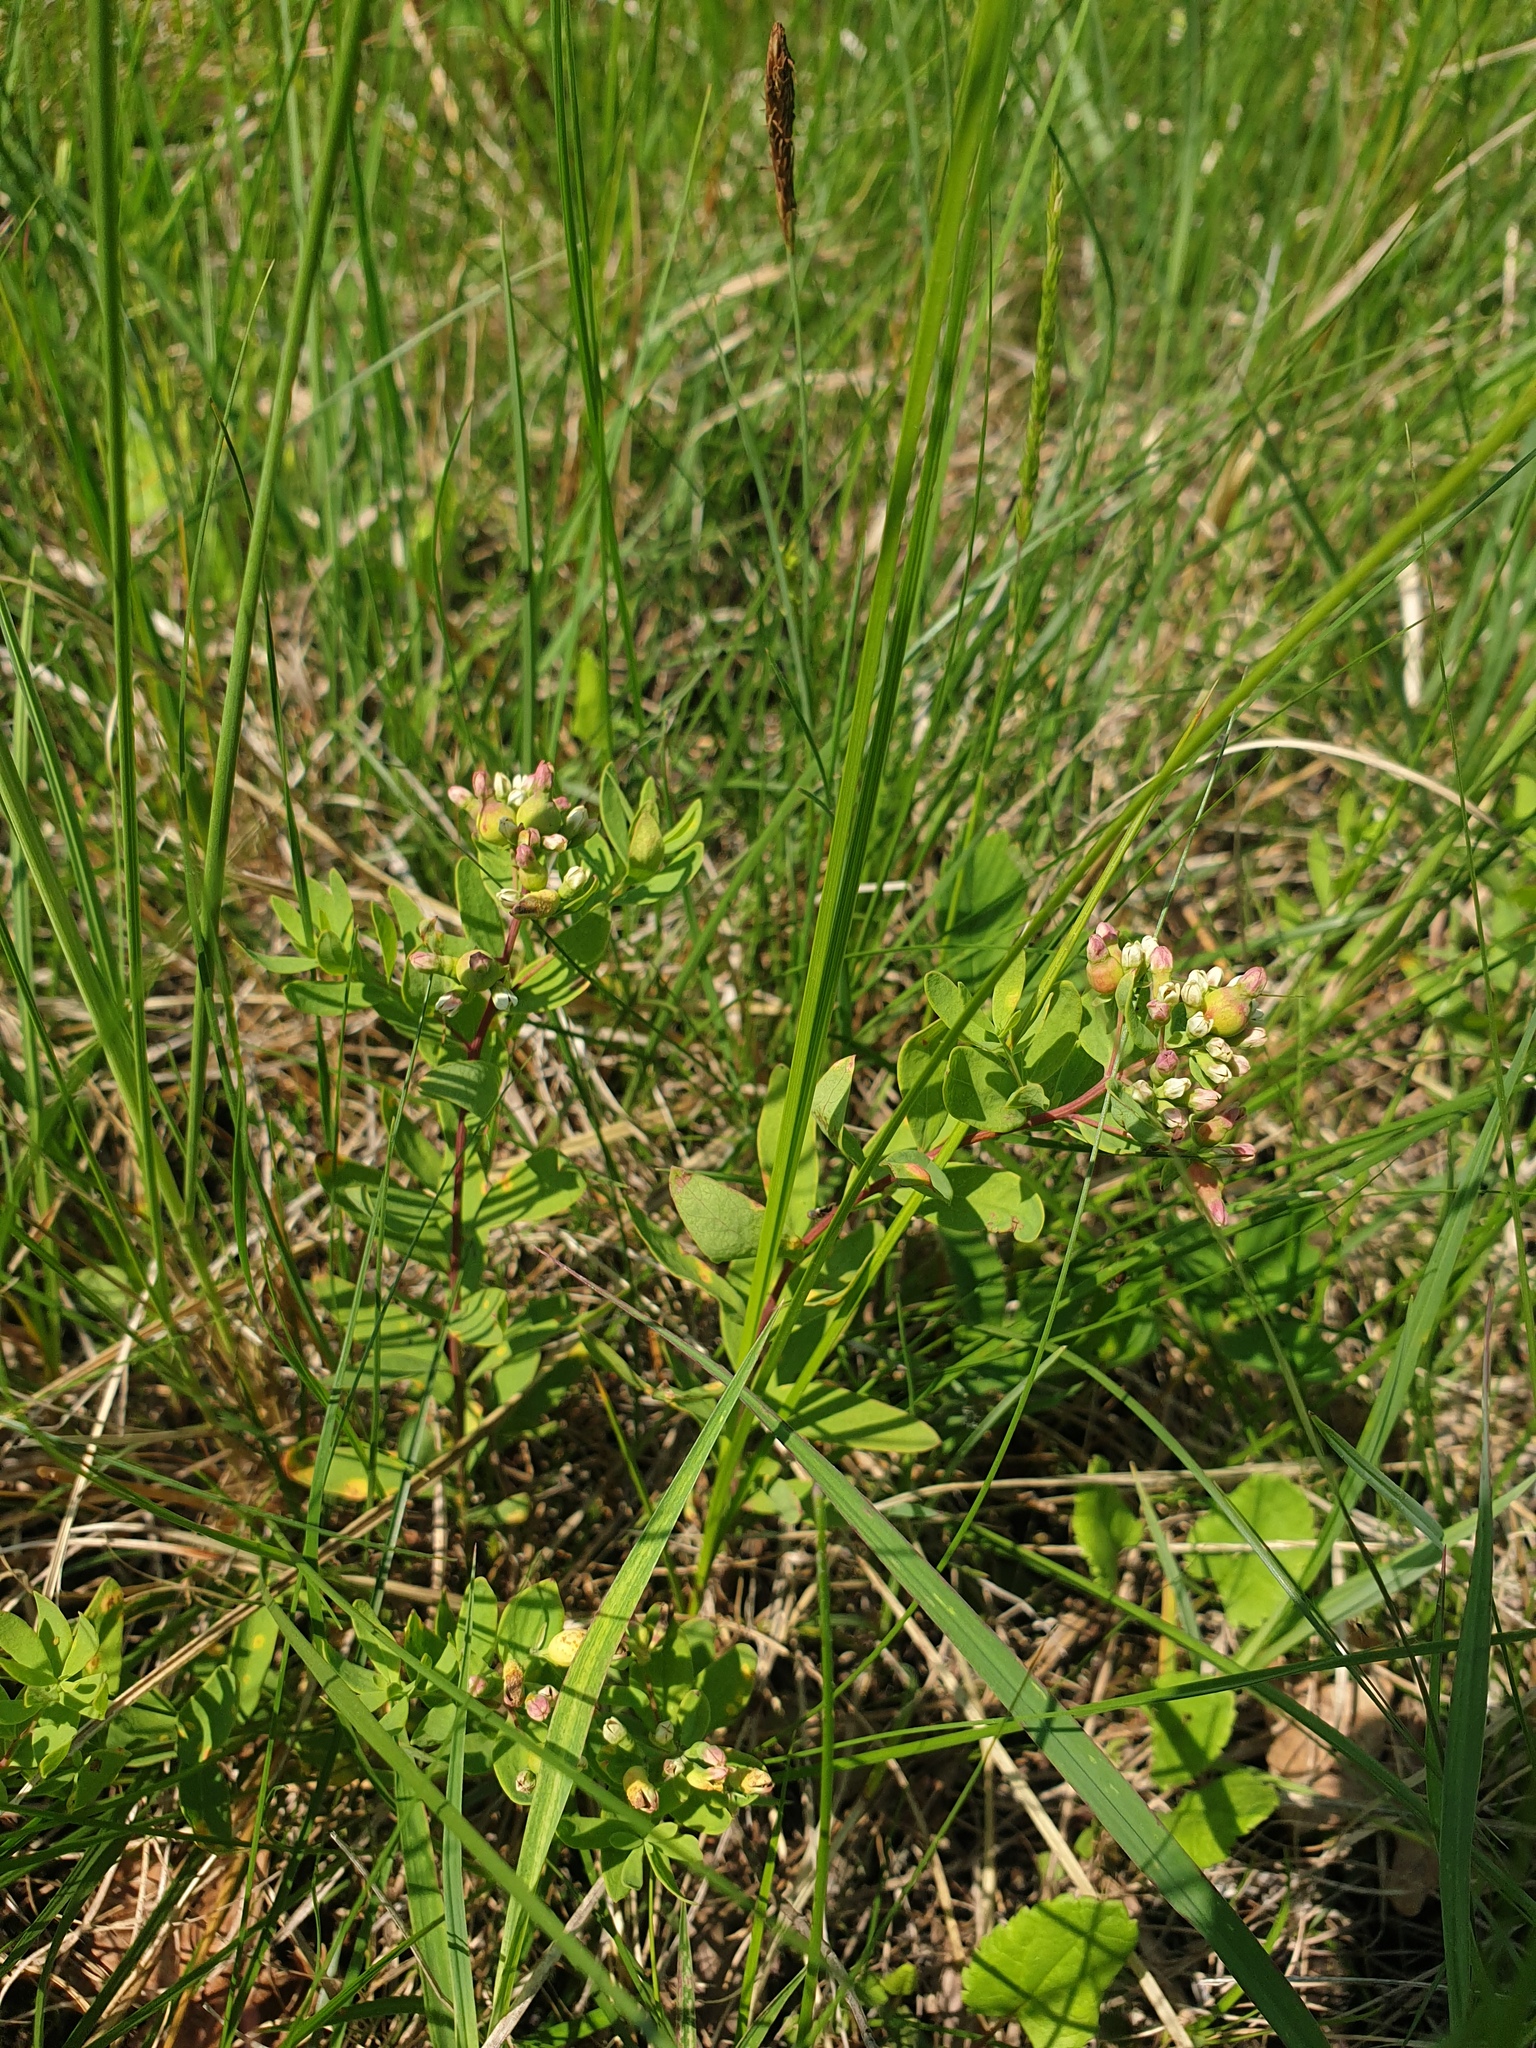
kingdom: Plantae
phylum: Tracheophyta
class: Magnoliopsida
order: Santalales
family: Comandraceae
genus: Comandra
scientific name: Comandra umbellata
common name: Bastard toadflax
